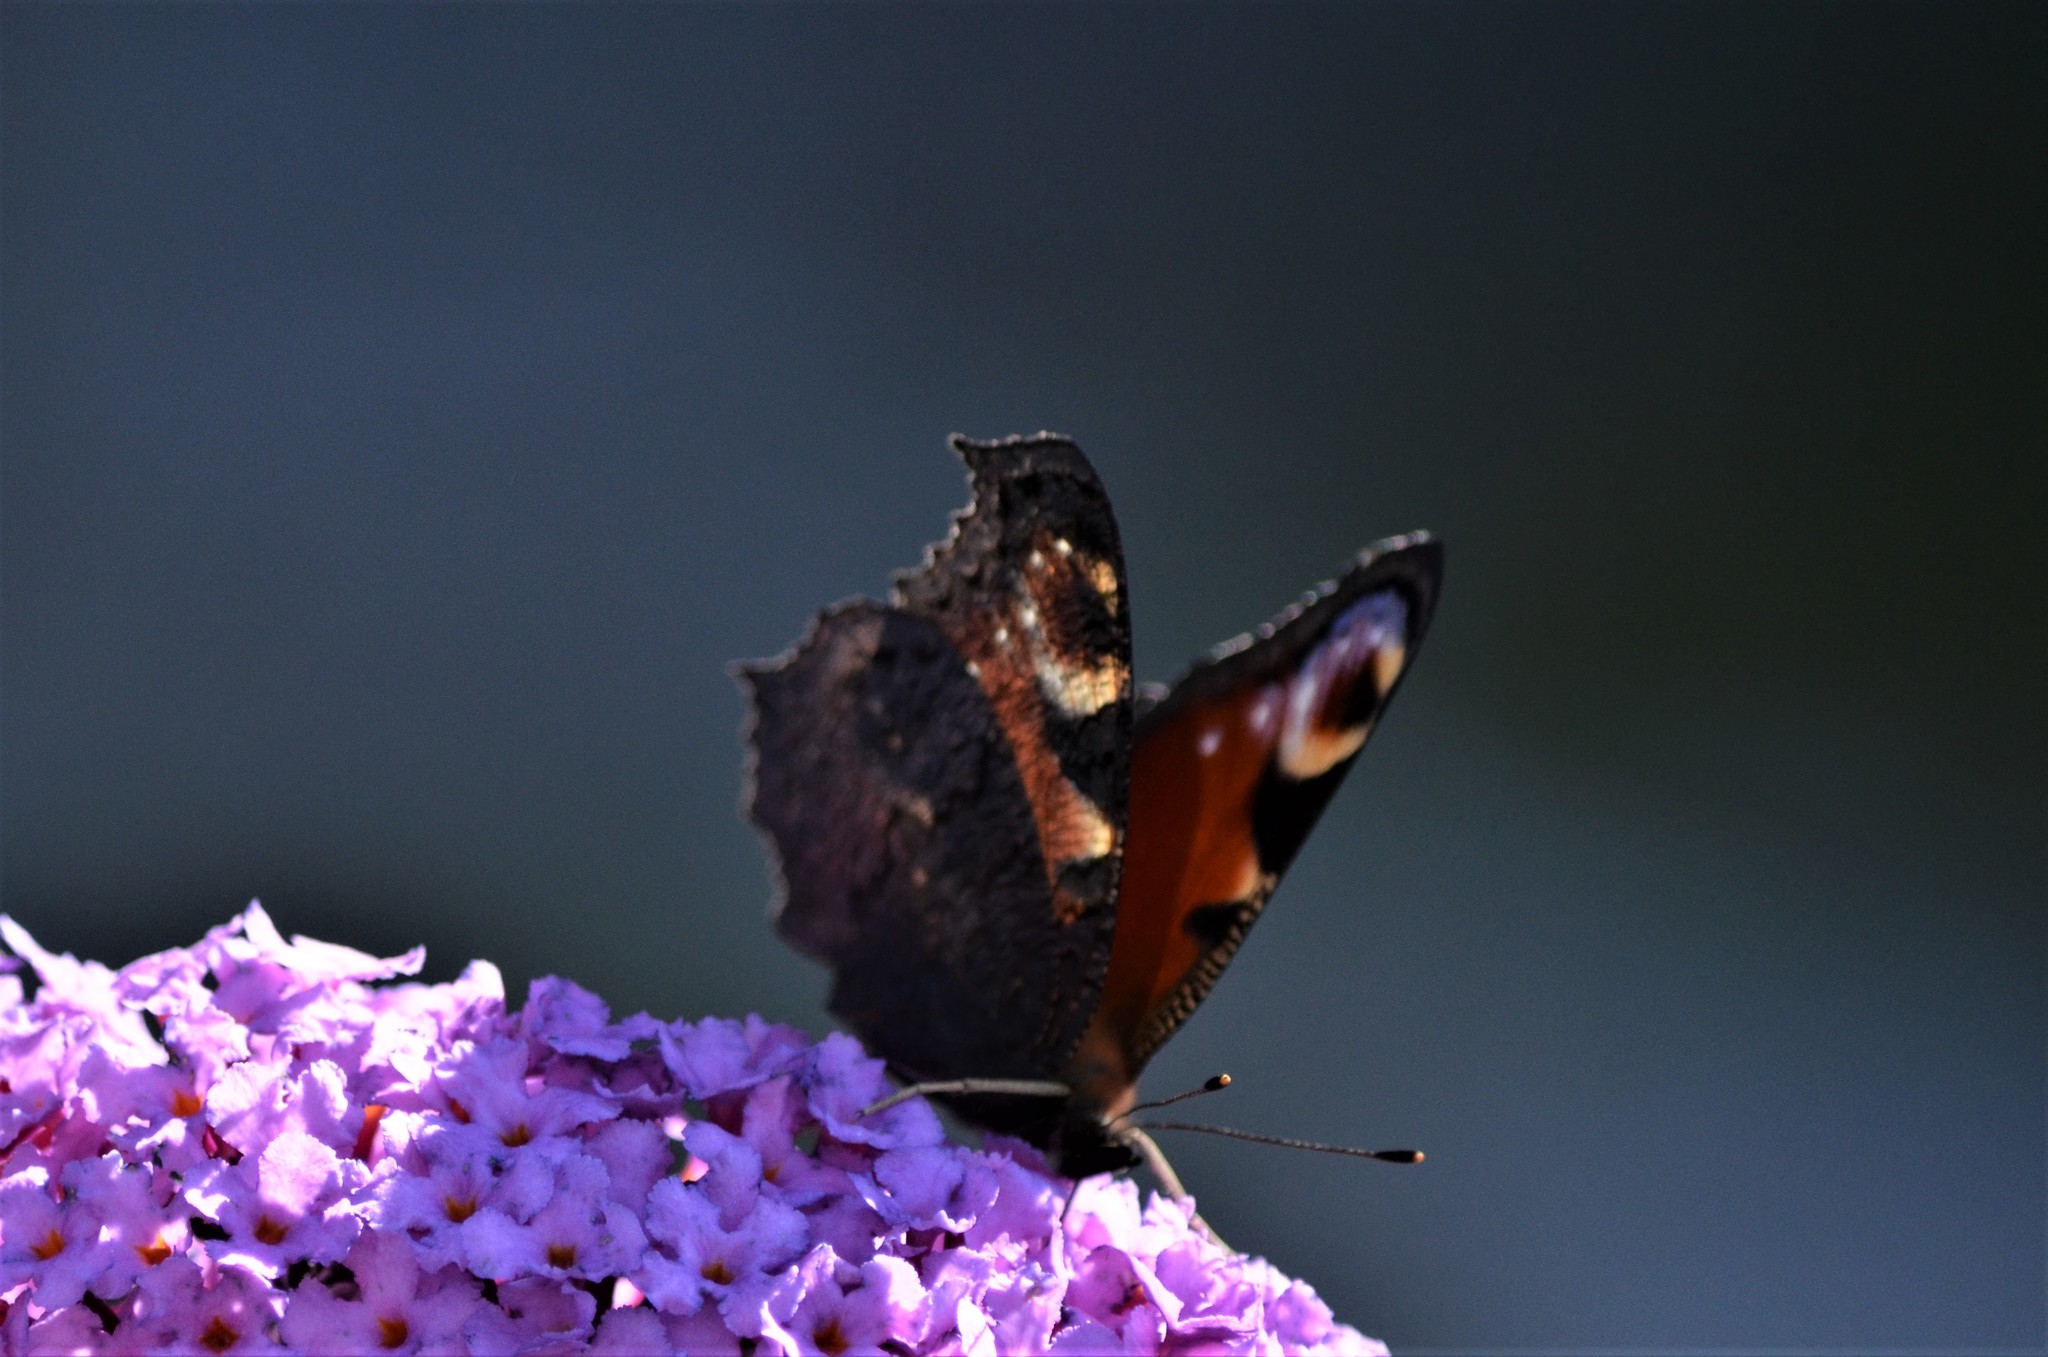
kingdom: Animalia
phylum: Arthropoda
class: Insecta
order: Lepidoptera
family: Nymphalidae
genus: Aglais
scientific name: Aglais io
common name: Peacock
